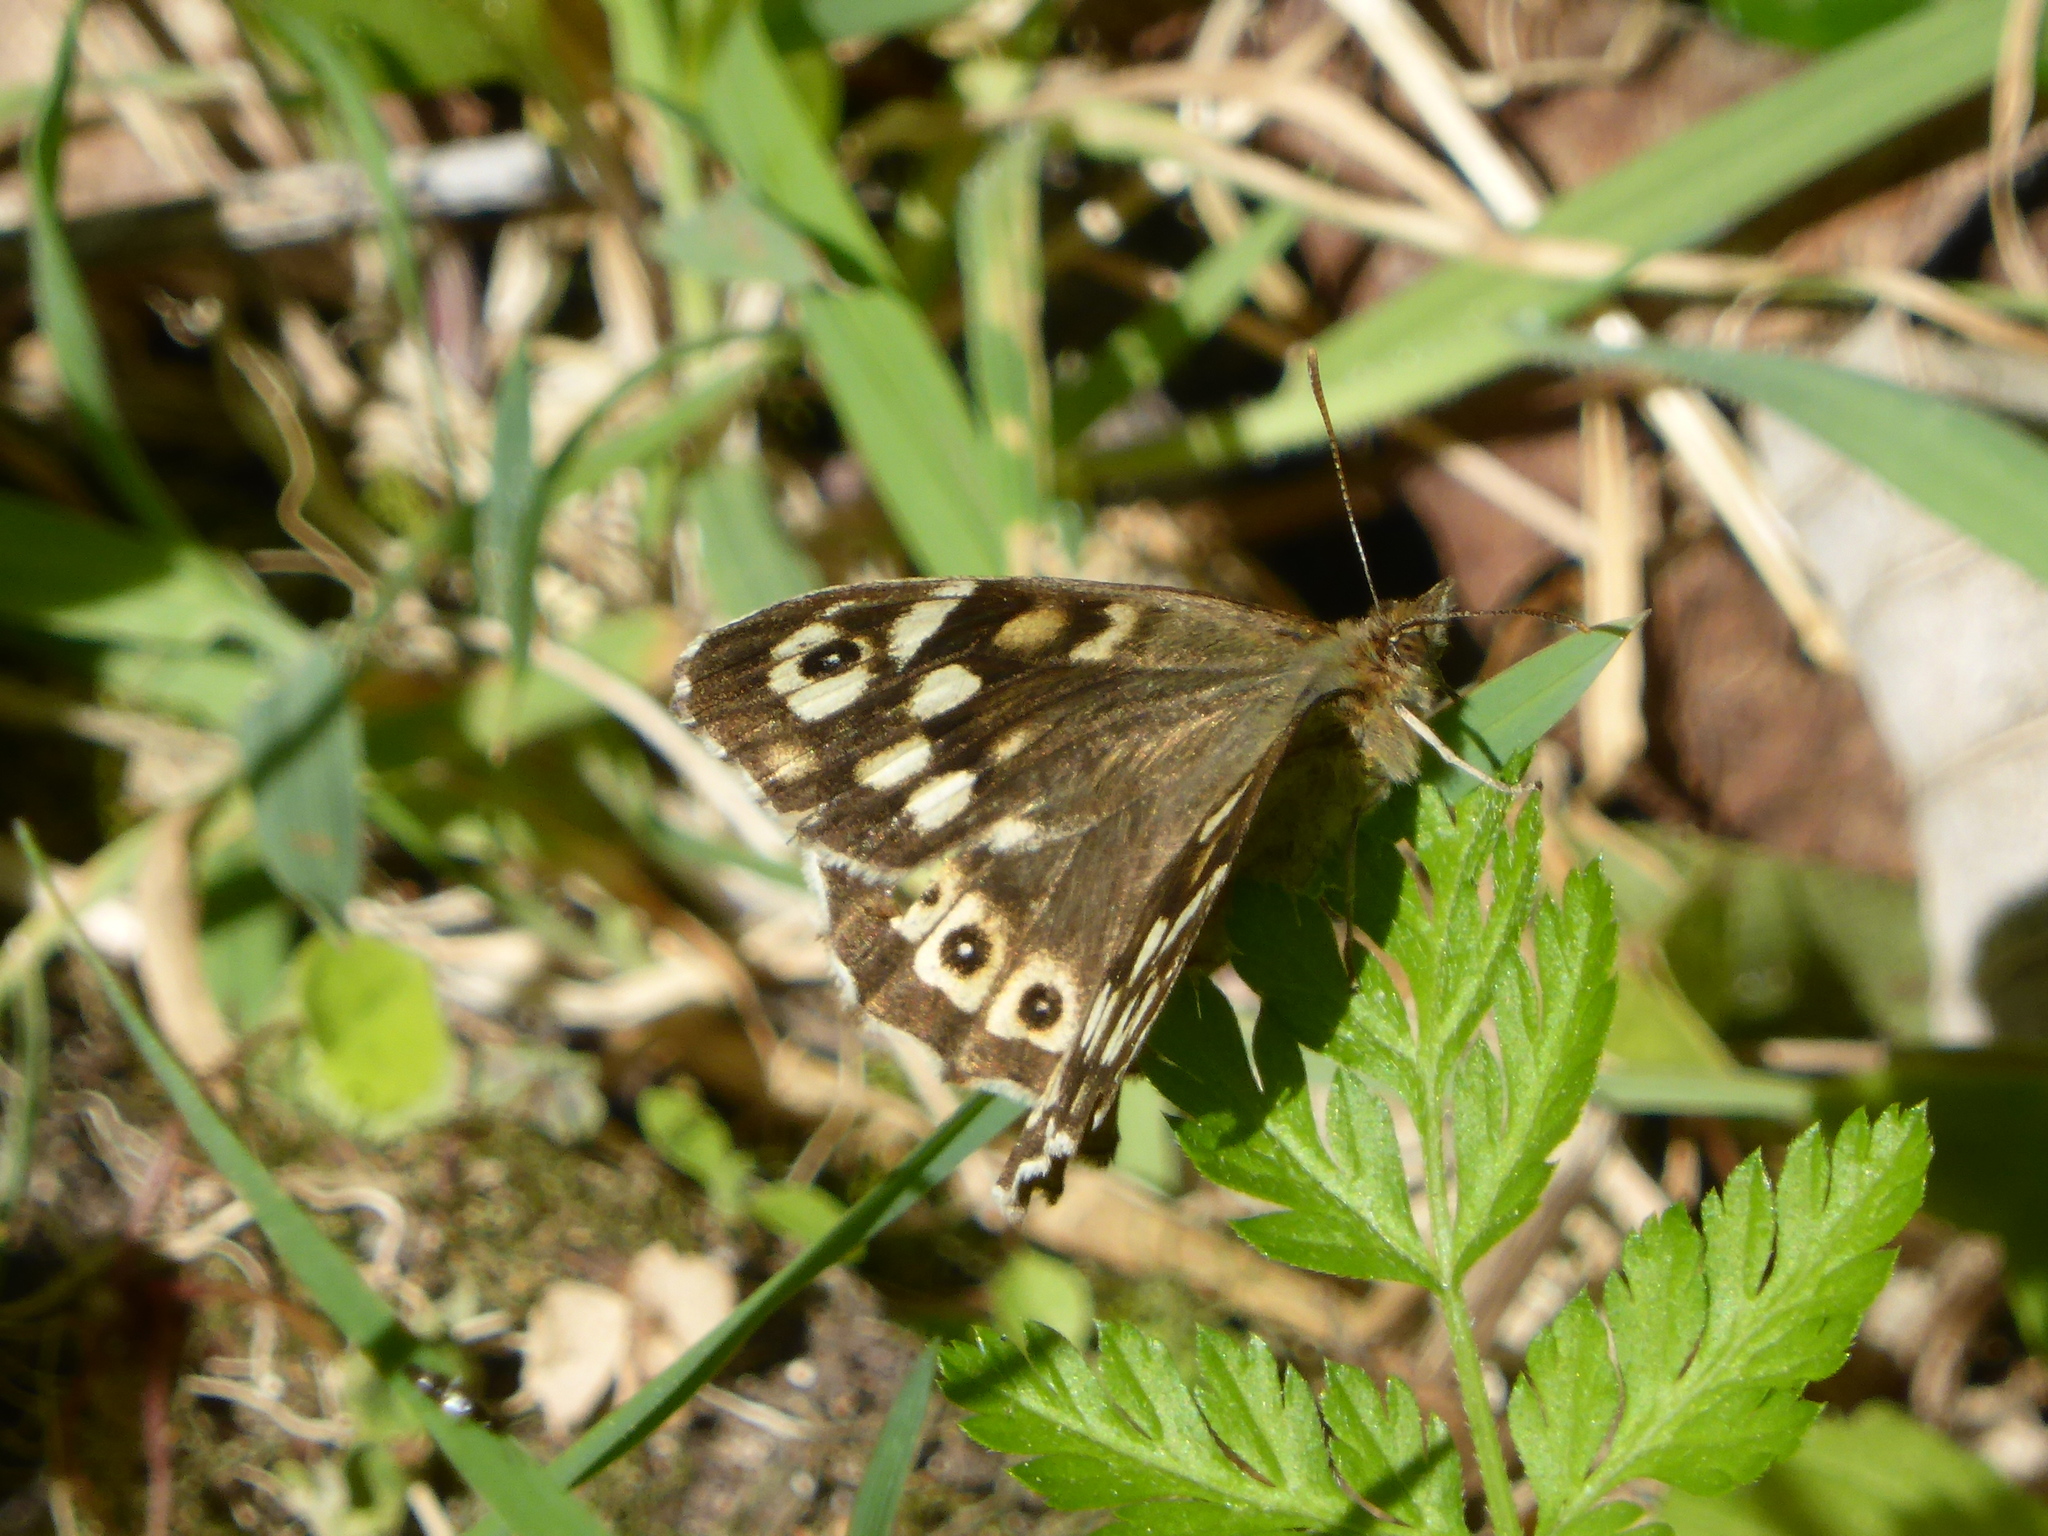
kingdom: Animalia
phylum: Arthropoda
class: Insecta
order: Lepidoptera
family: Nymphalidae
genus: Pararge
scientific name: Pararge aegeria
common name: Speckled wood
